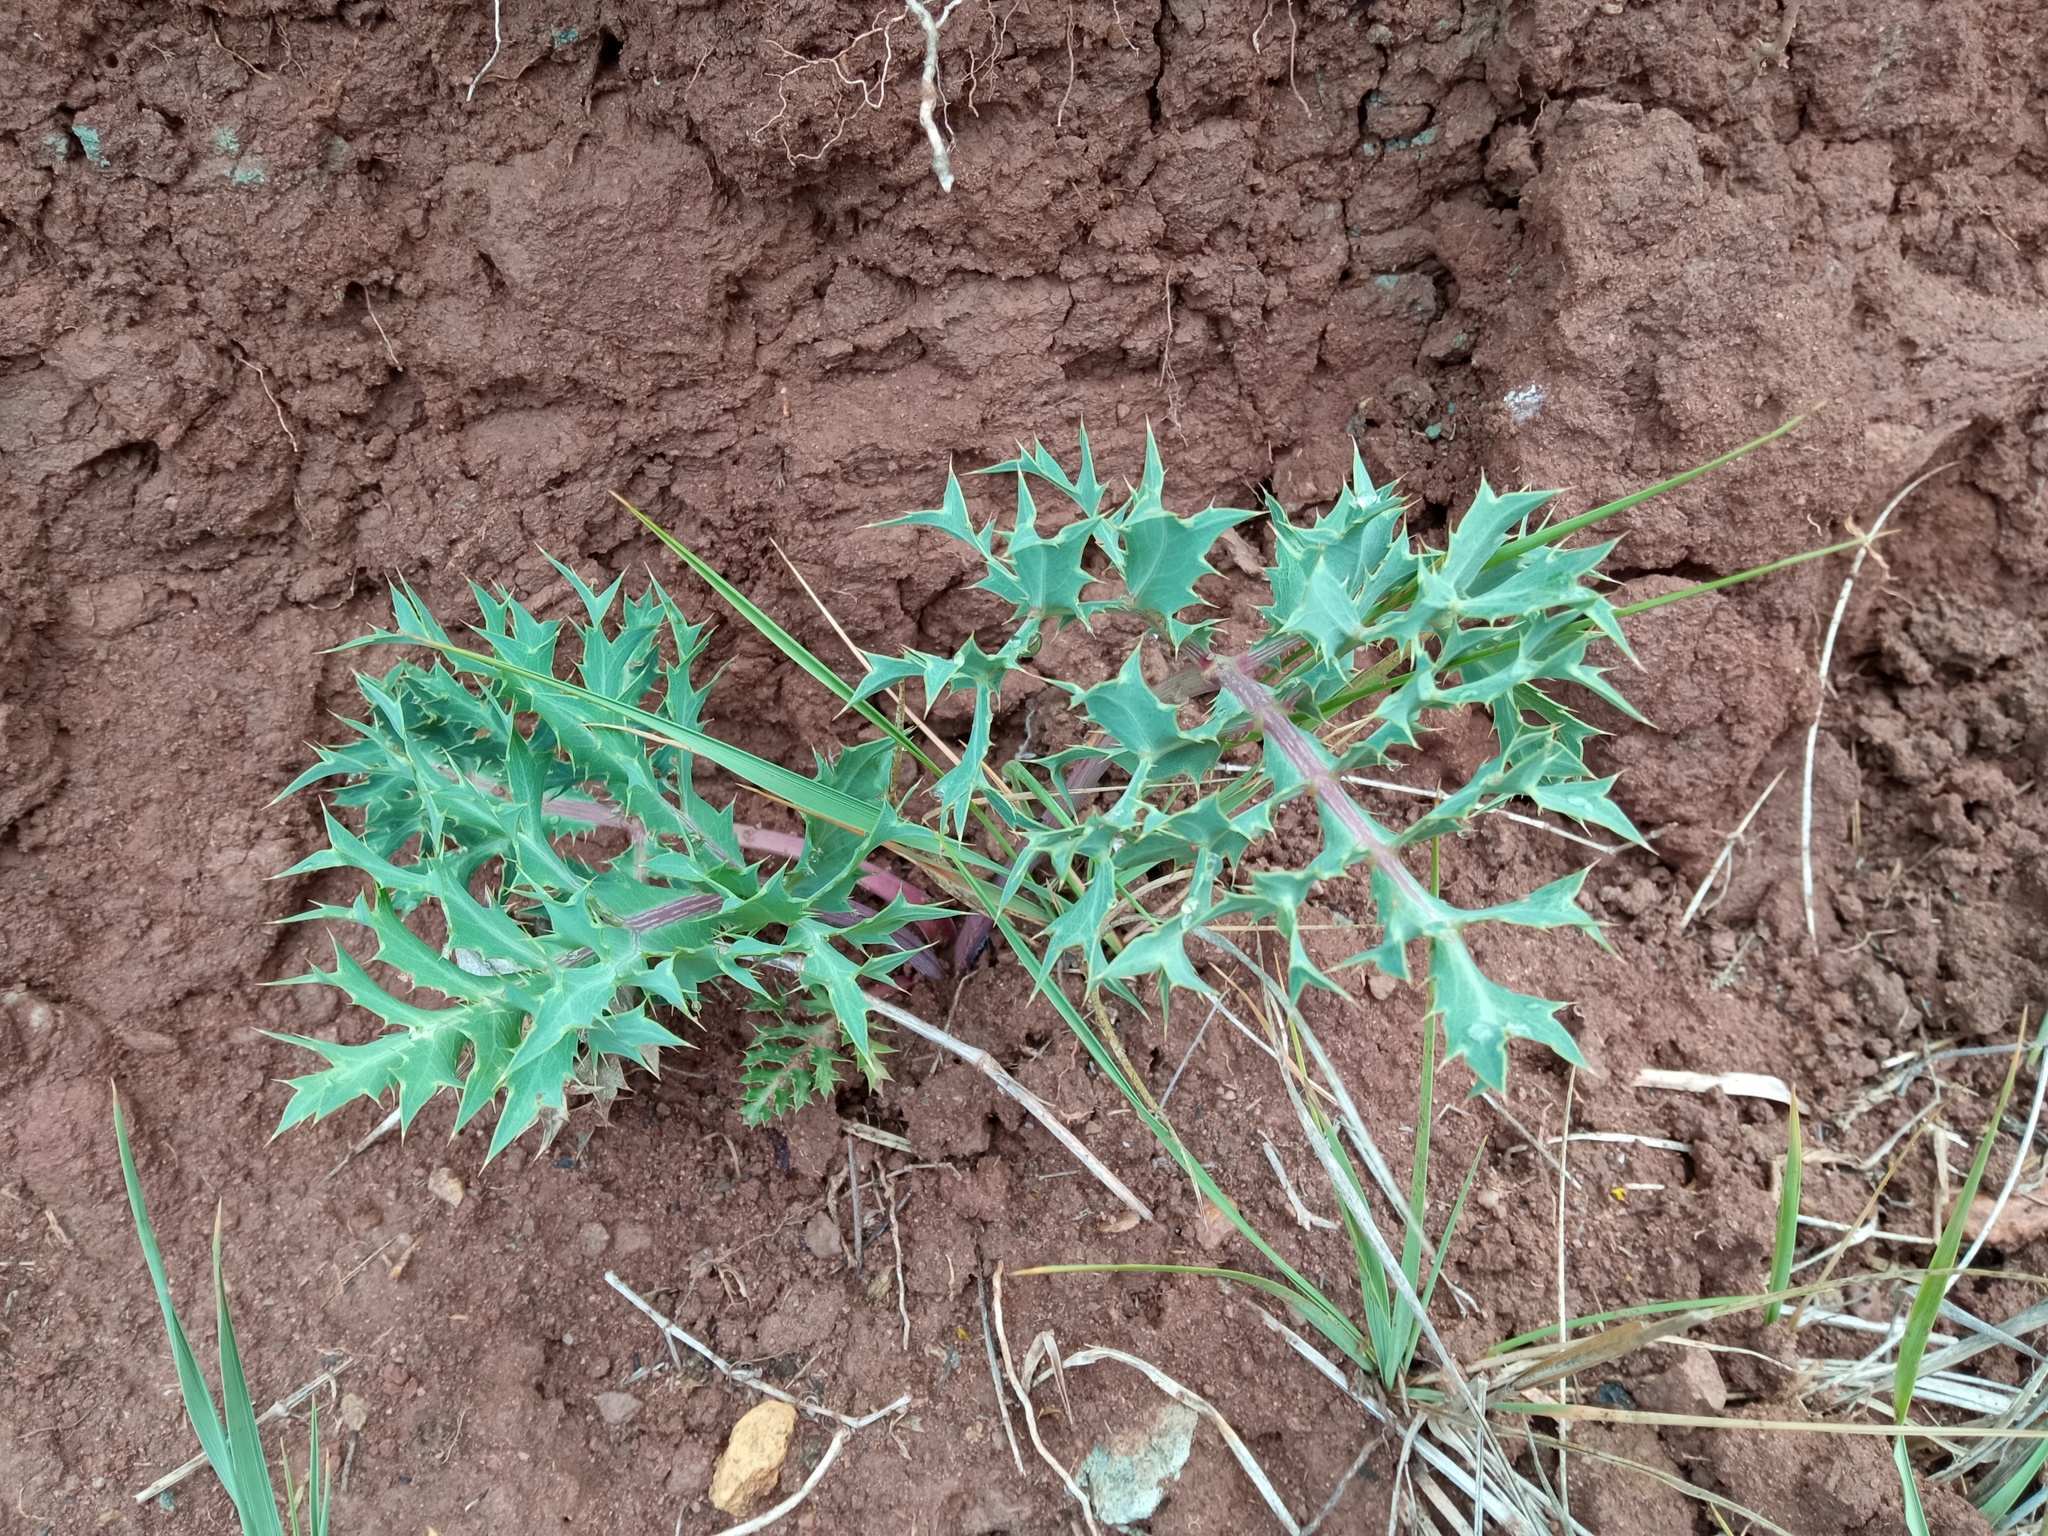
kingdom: Plantae
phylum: Tracheophyta
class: Magnoliopsida
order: Apiales
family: Apiaceae
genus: Eryngium
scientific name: Eryngium campestre
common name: Field eryngo
